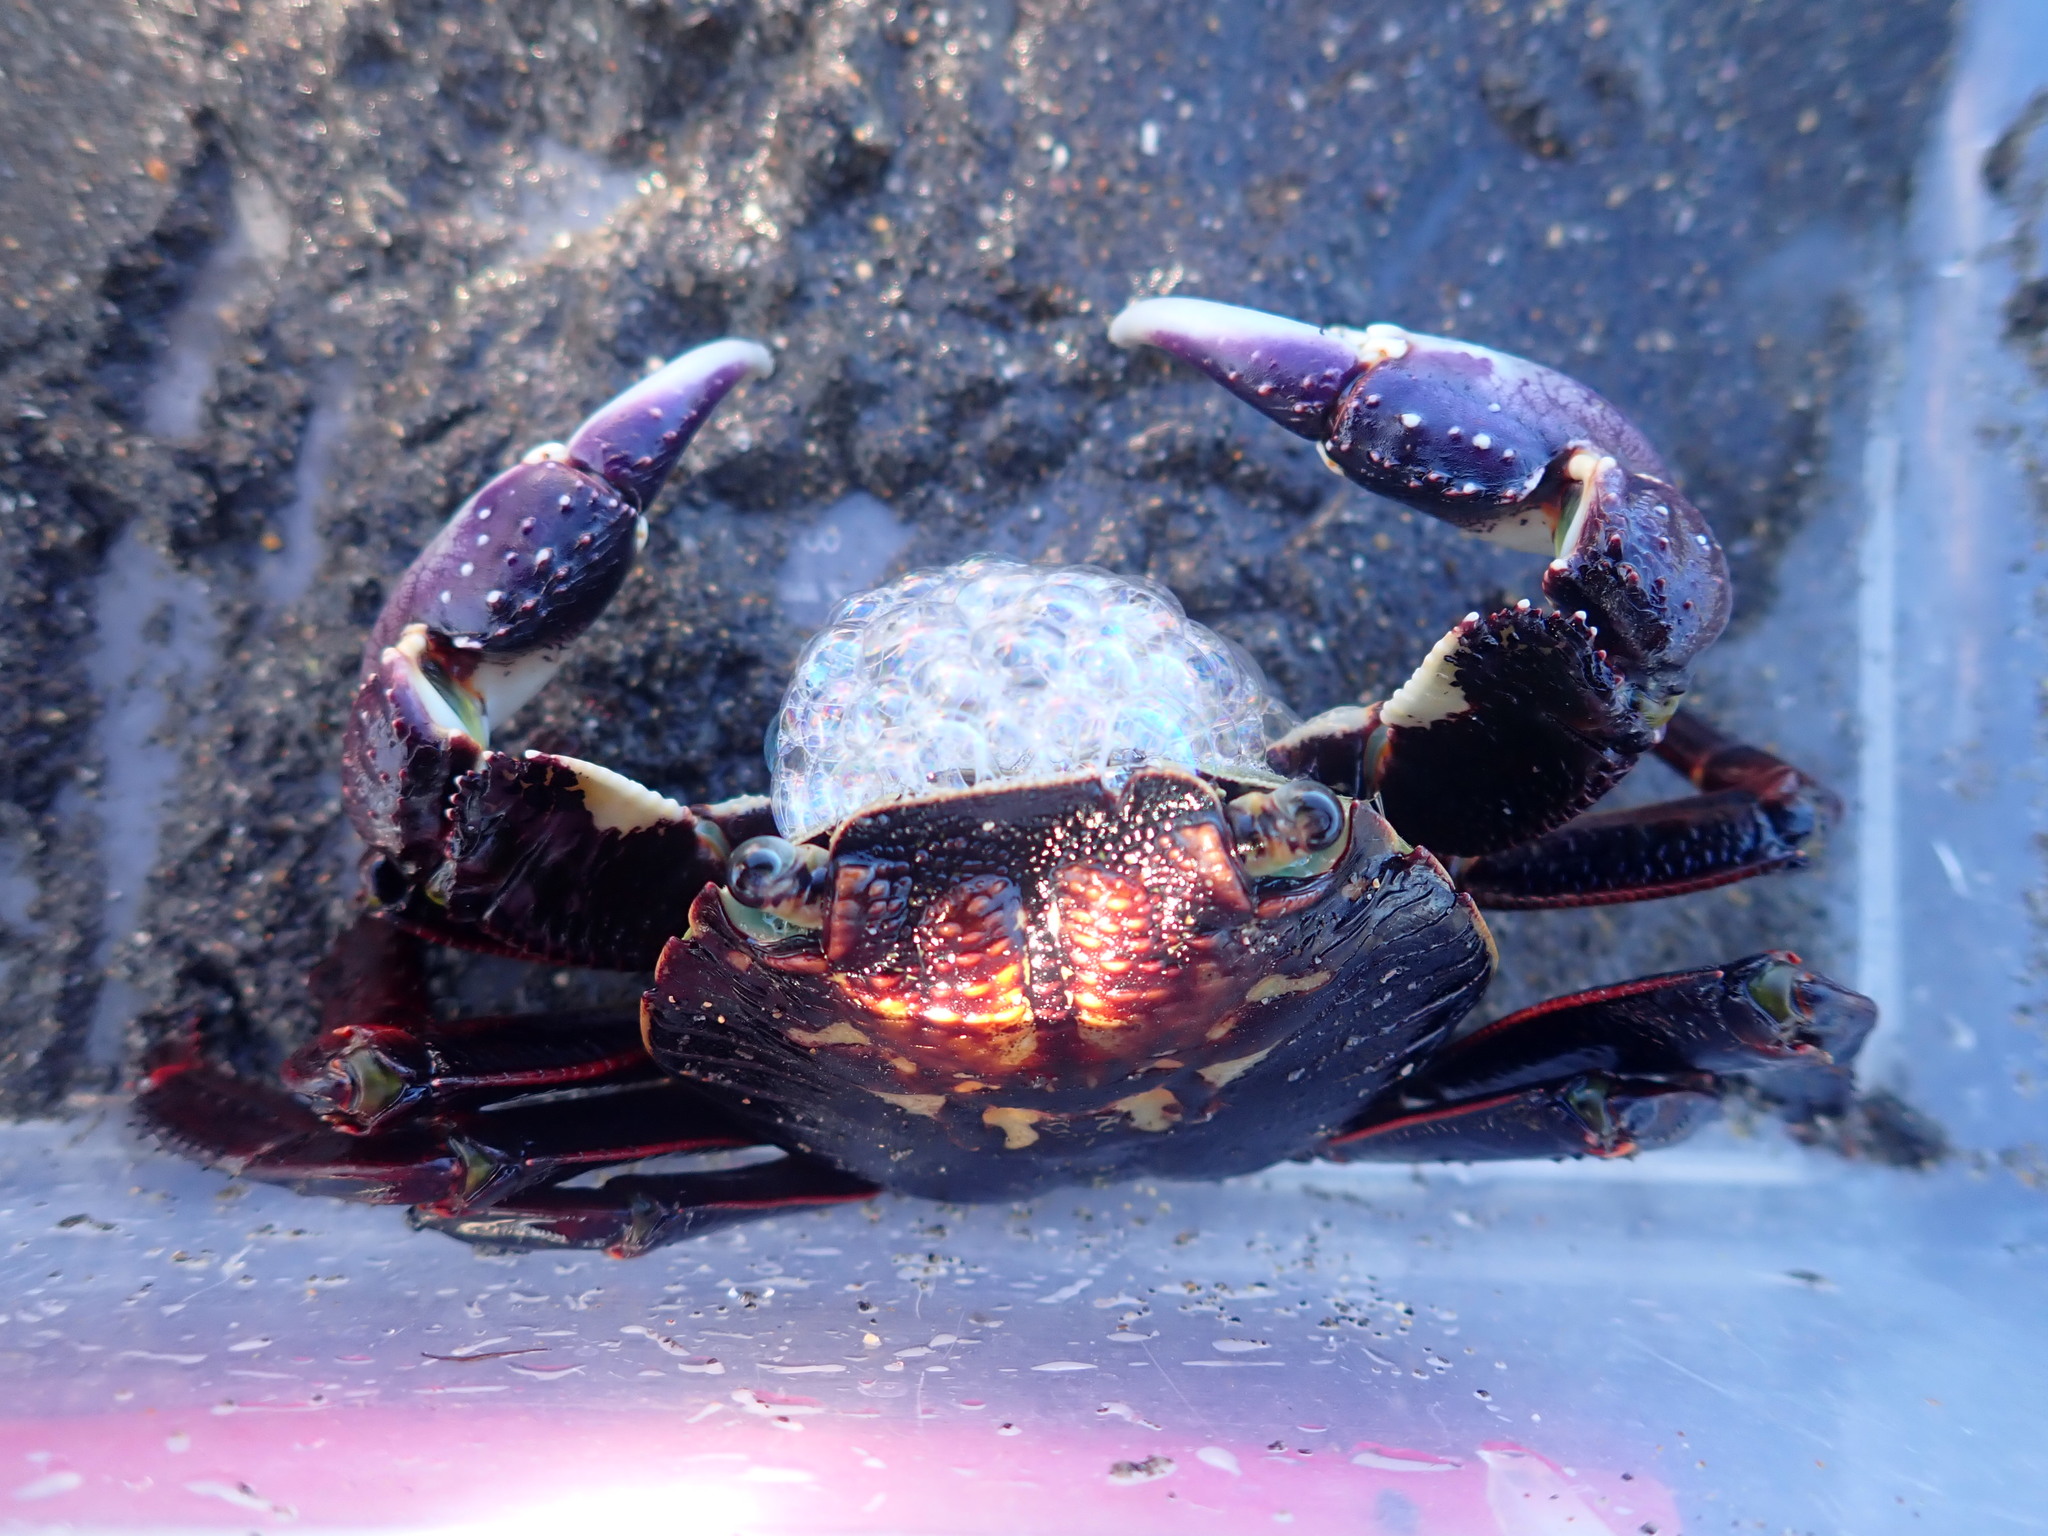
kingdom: Animalia
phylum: Arthropoda
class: Malacostraca
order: Decapoda
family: Grapsidae
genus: Leptograpsus
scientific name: Leptograpsus variegatus
